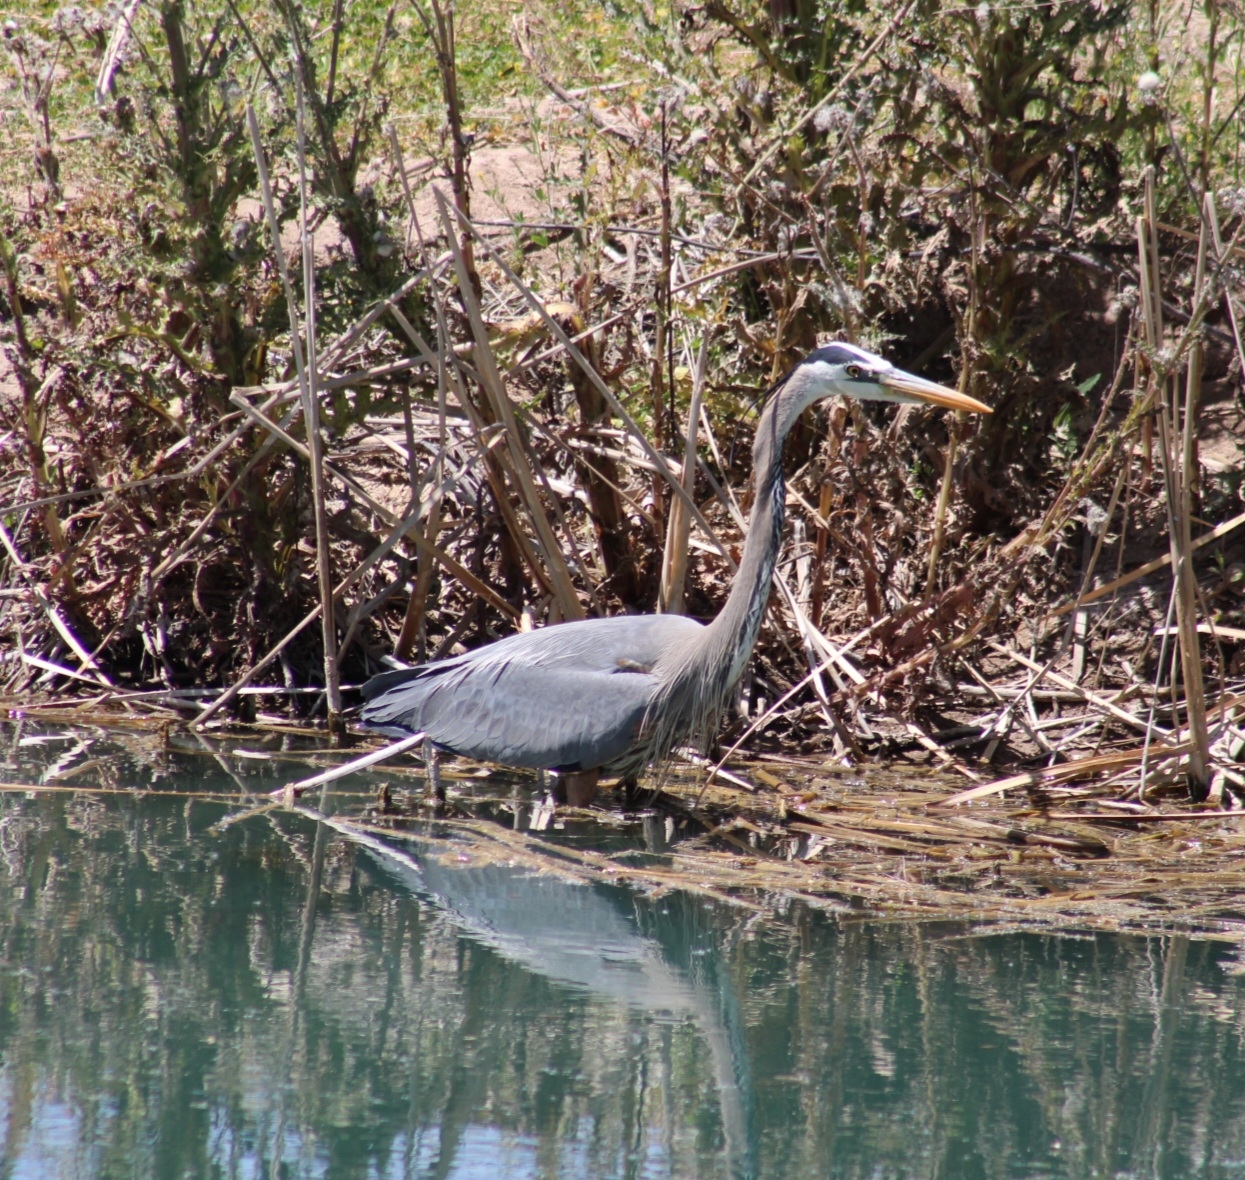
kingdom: Animalia
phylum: Chordata
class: Aves
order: Pelecaniformes
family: Ardeidae
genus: Ardea
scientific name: Ardea herodias
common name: Great blue heron
